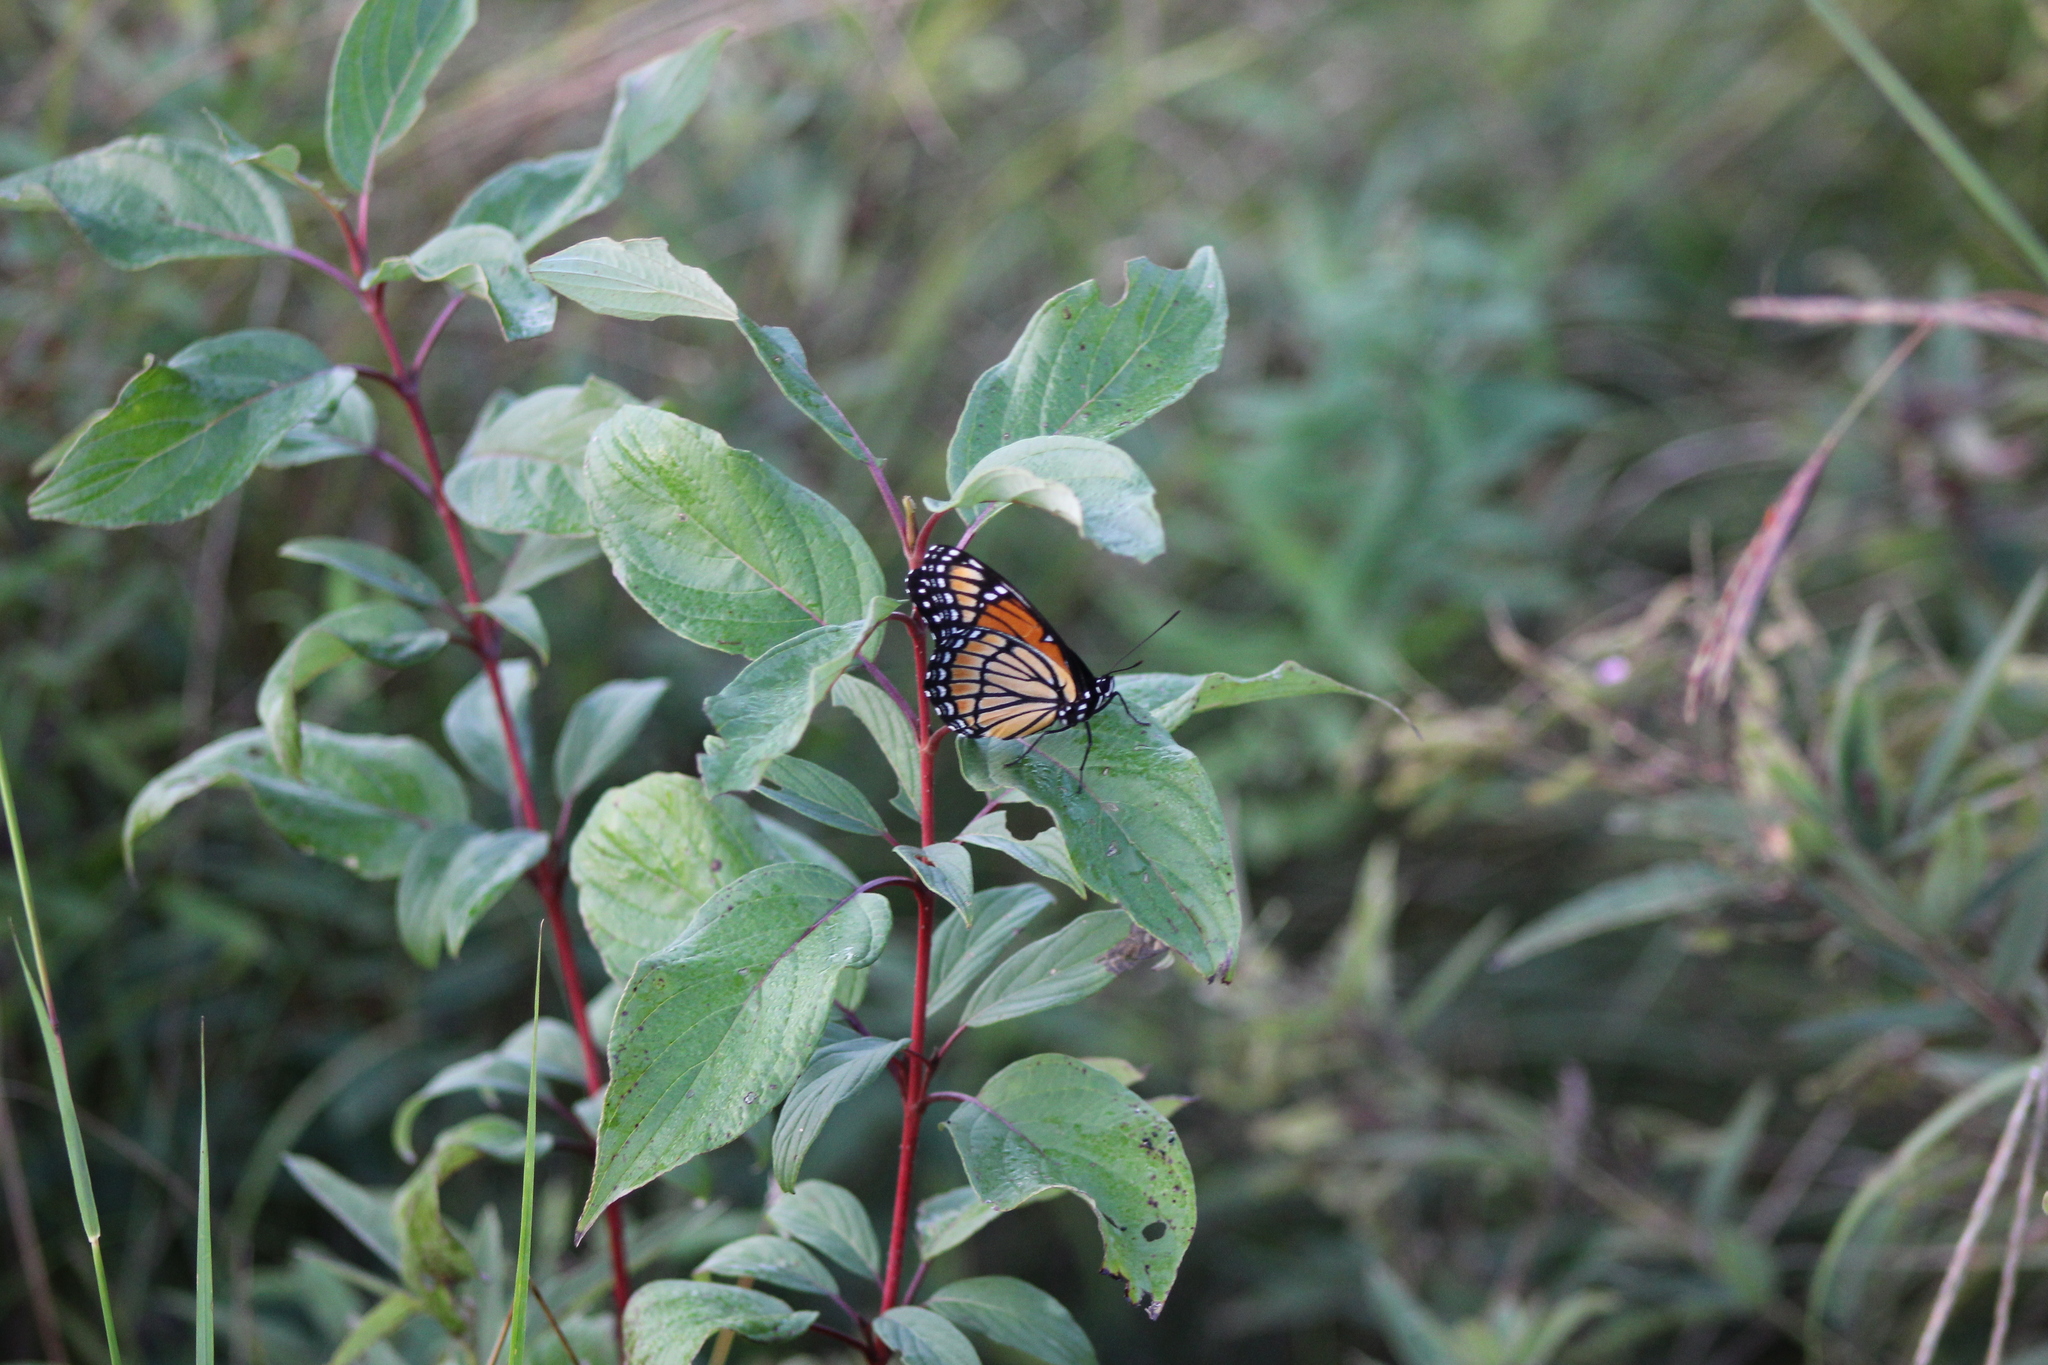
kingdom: Animalia
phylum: Arthropoda
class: Insecta
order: Lepidoptera
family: Nymphalidae
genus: Limenitis
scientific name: Limenitis archippus
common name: Viceroy
